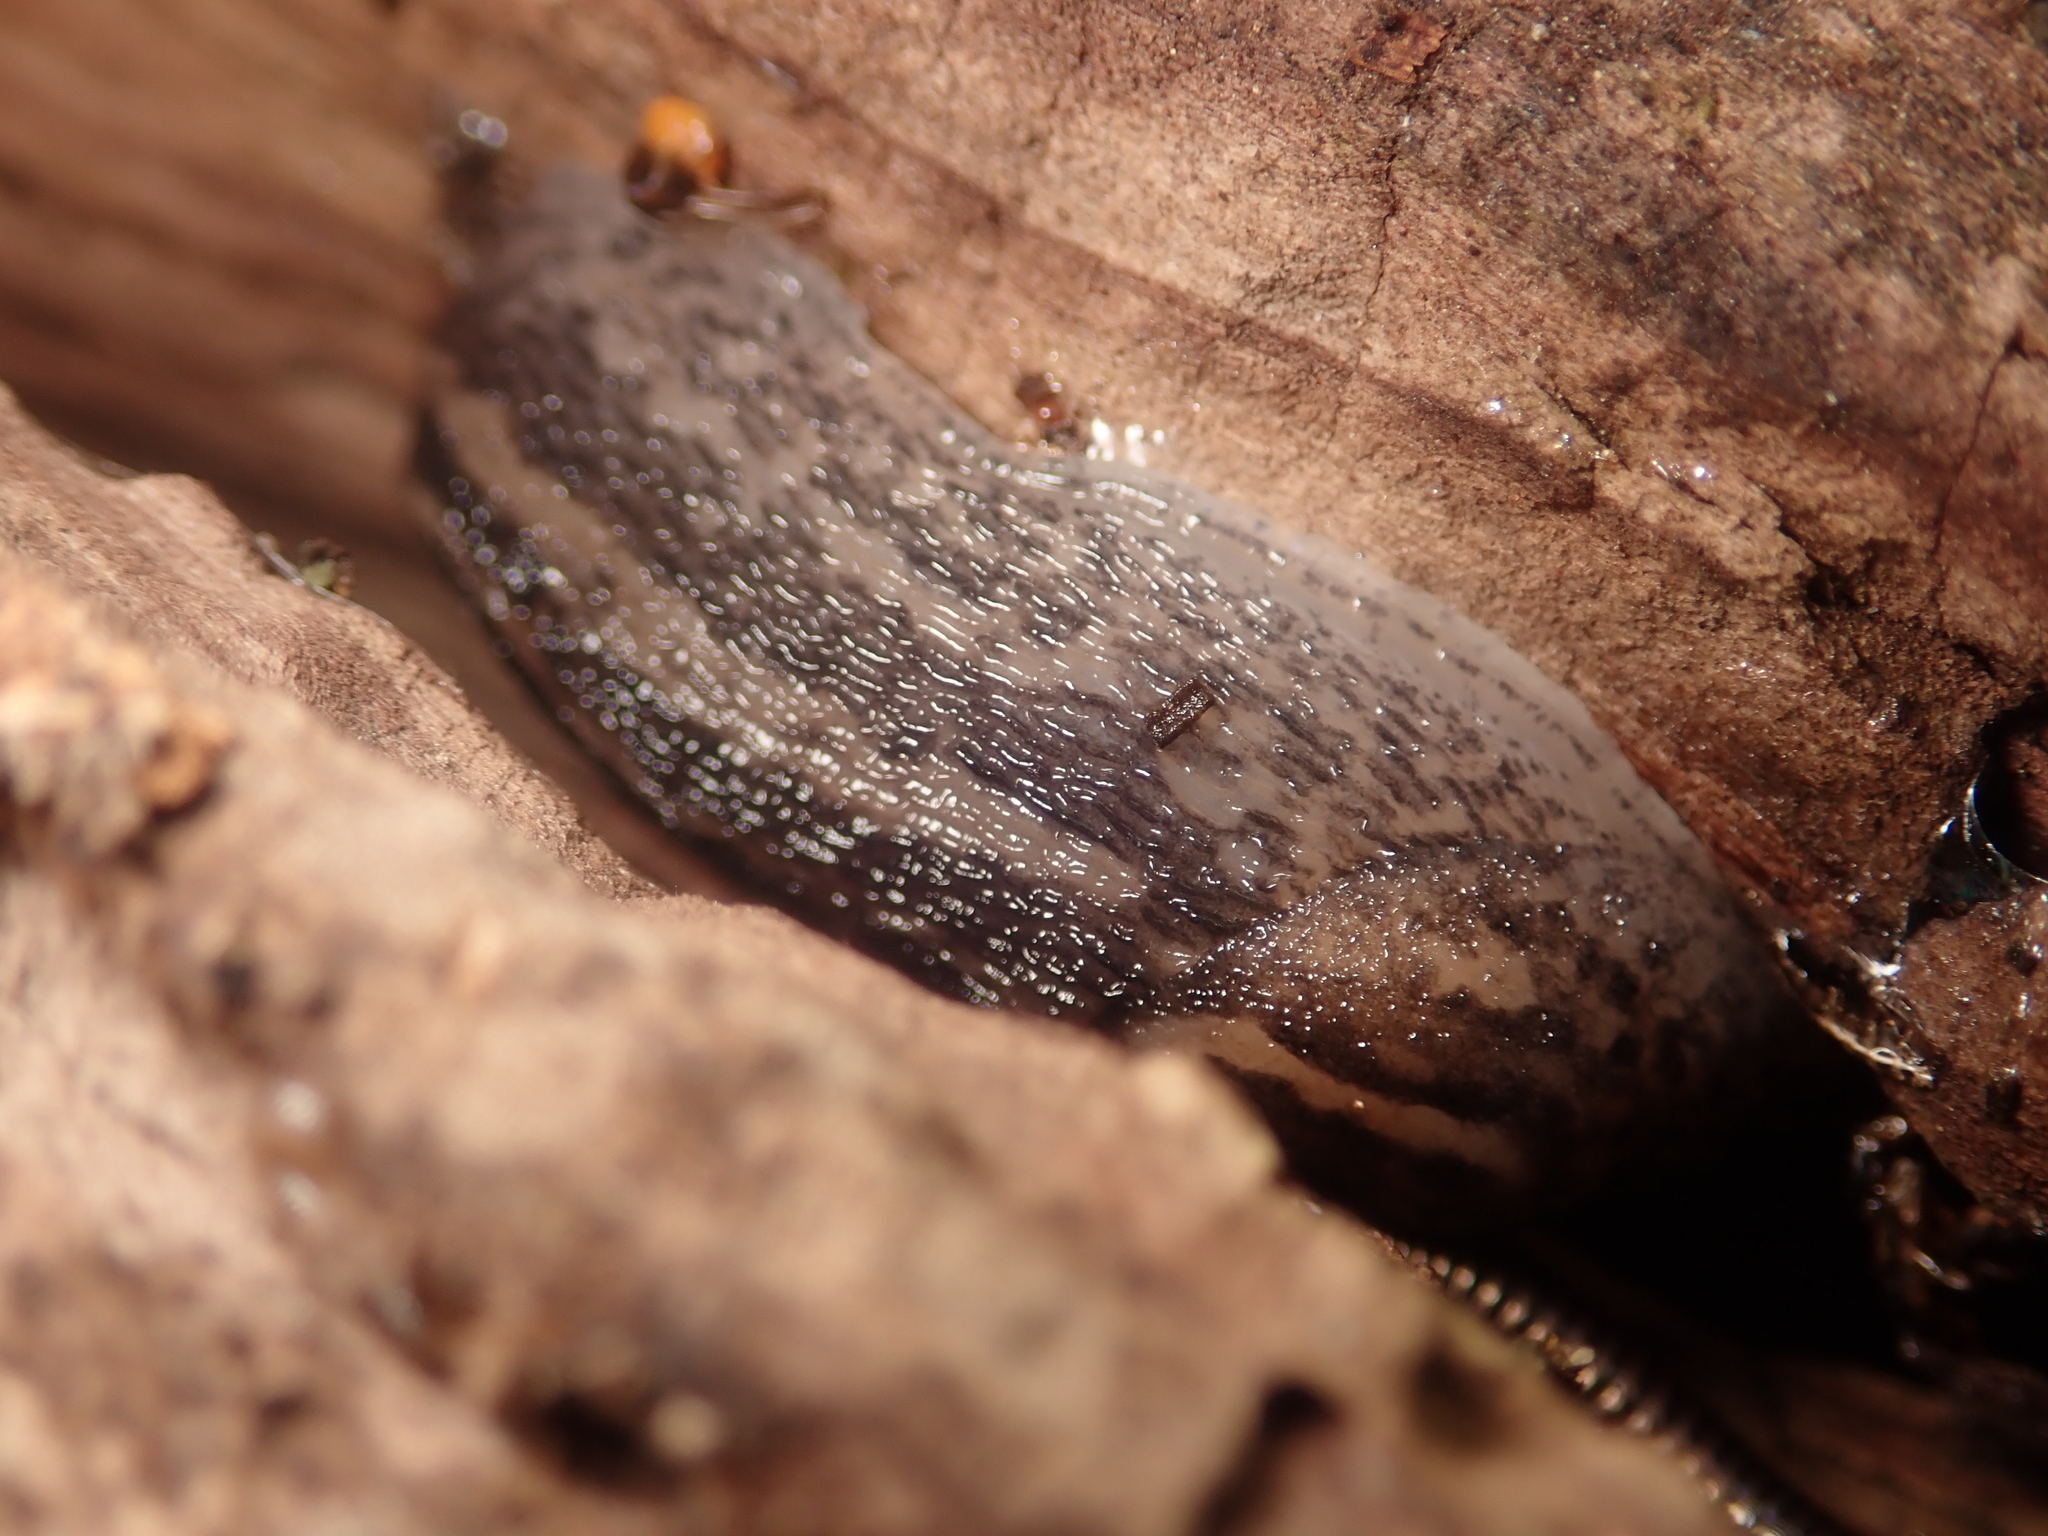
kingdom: Animalia
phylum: Mollusca
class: Gastropoda
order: Stylommatophora
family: Limacidae
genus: Limax
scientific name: Limax maximus
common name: Great grey slug
